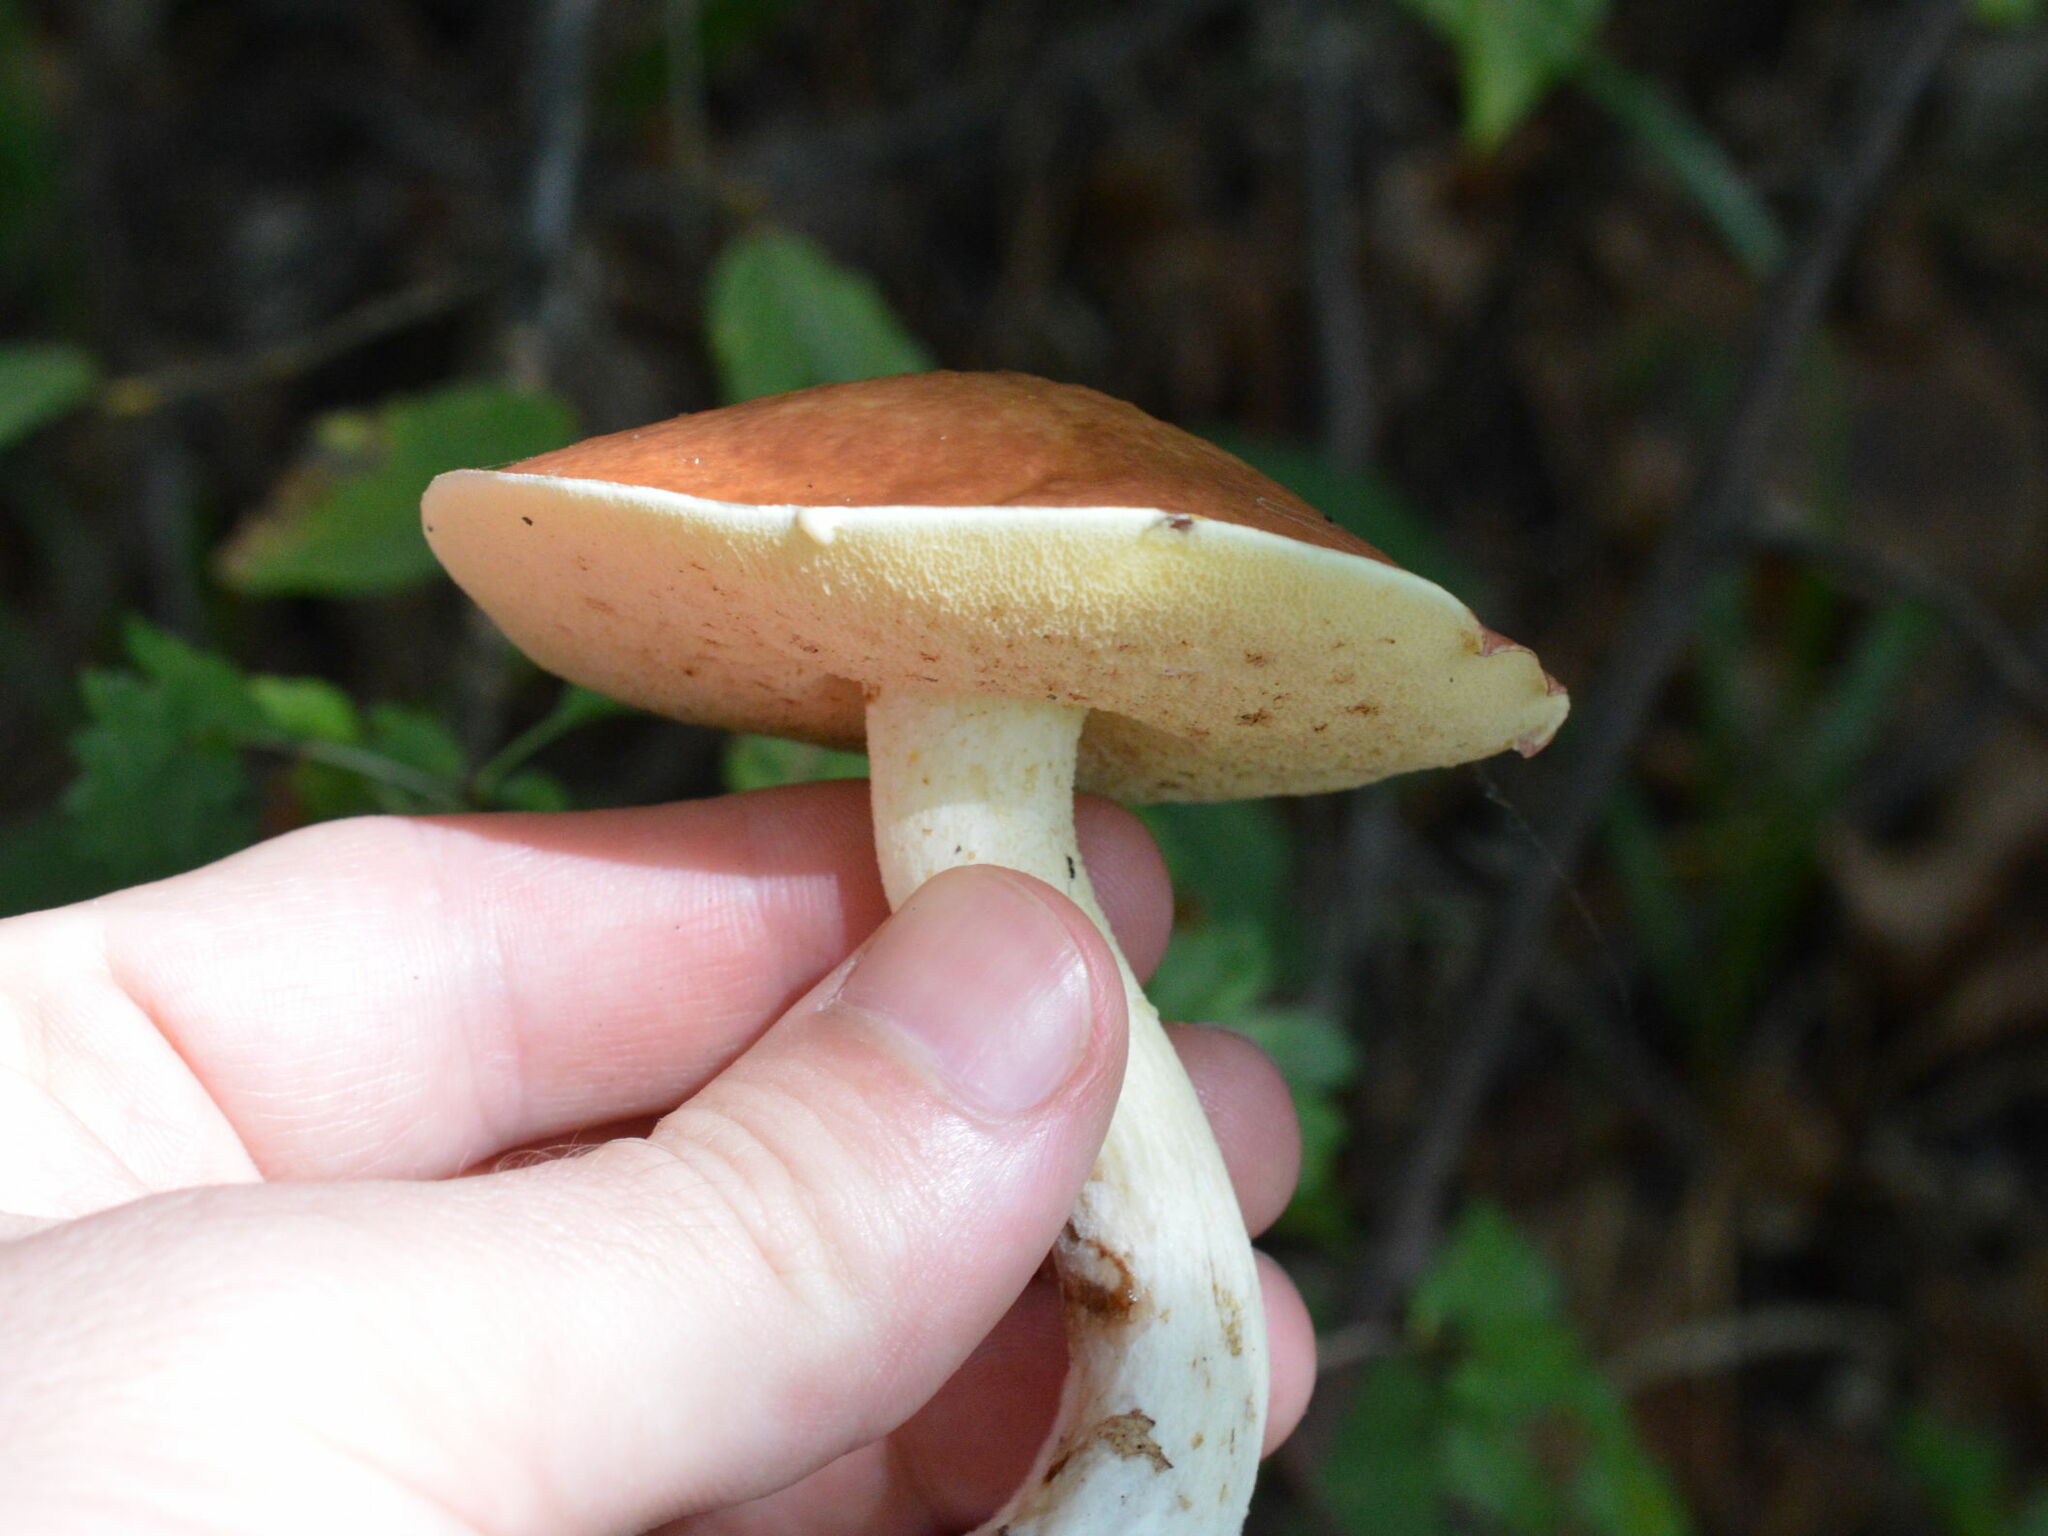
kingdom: Fungi
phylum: Basidiomycota
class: Agaricomycetes
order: Boletales
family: Suillaceae
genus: Suillus
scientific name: Suillus granulatus
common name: Weeping bolete
